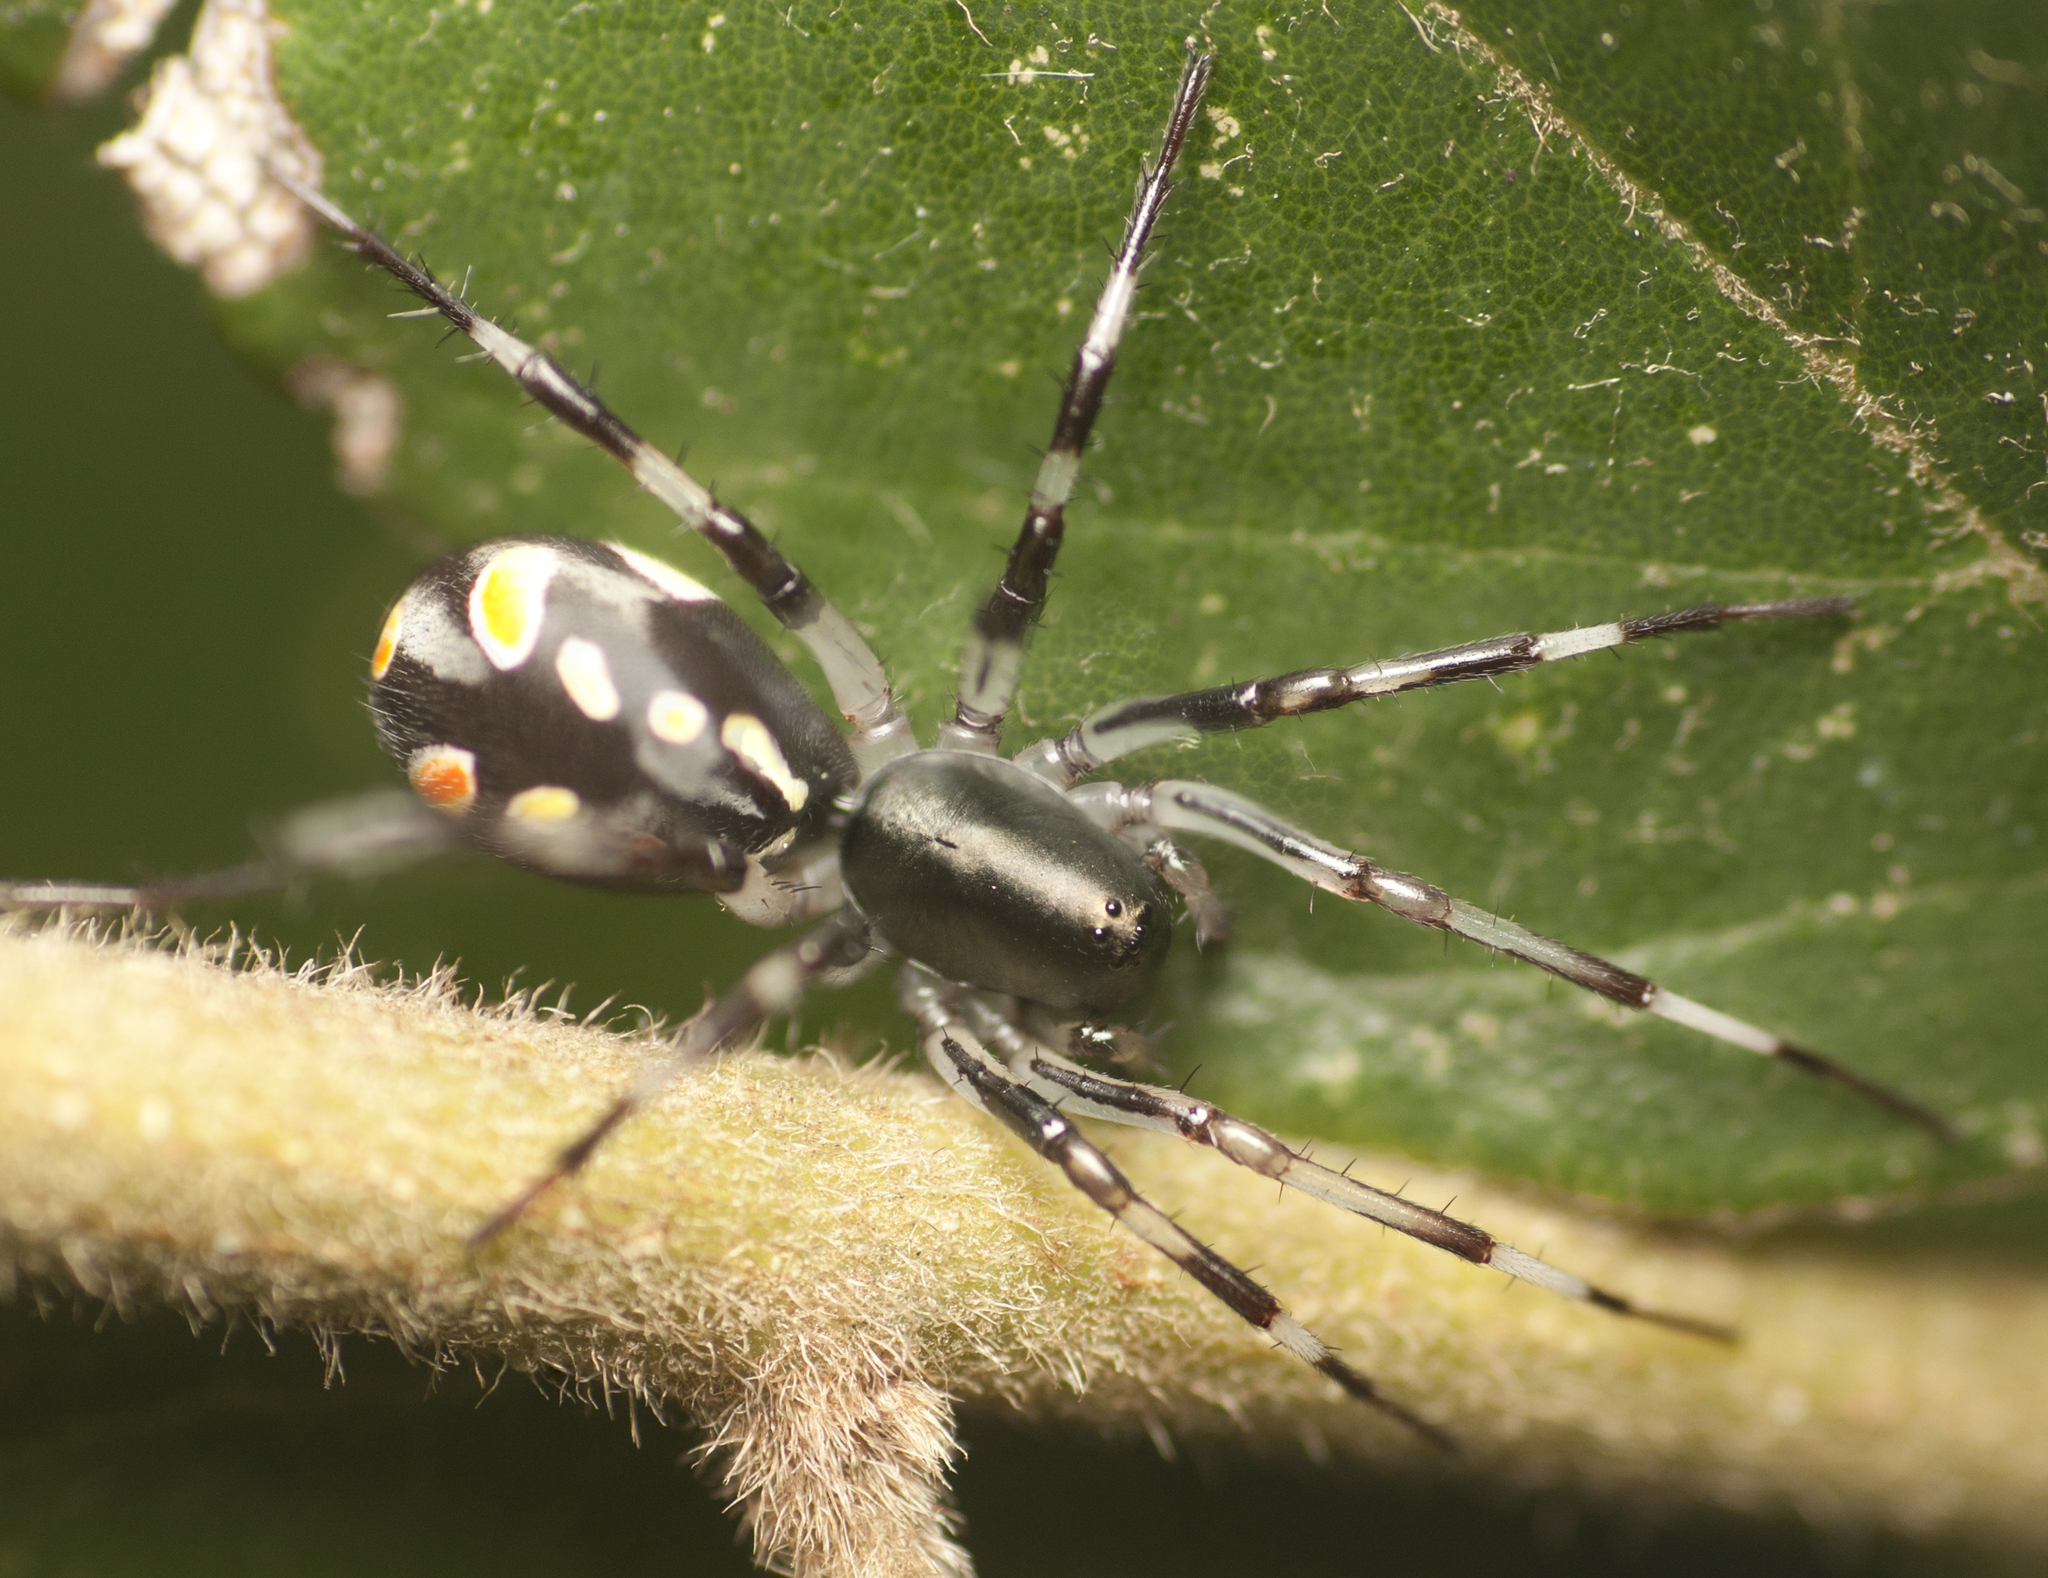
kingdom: Animalia
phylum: Arthropoda
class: Arachnida
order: Araneae
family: Zodariidae
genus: Subasteron
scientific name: Subasteron daviesae
